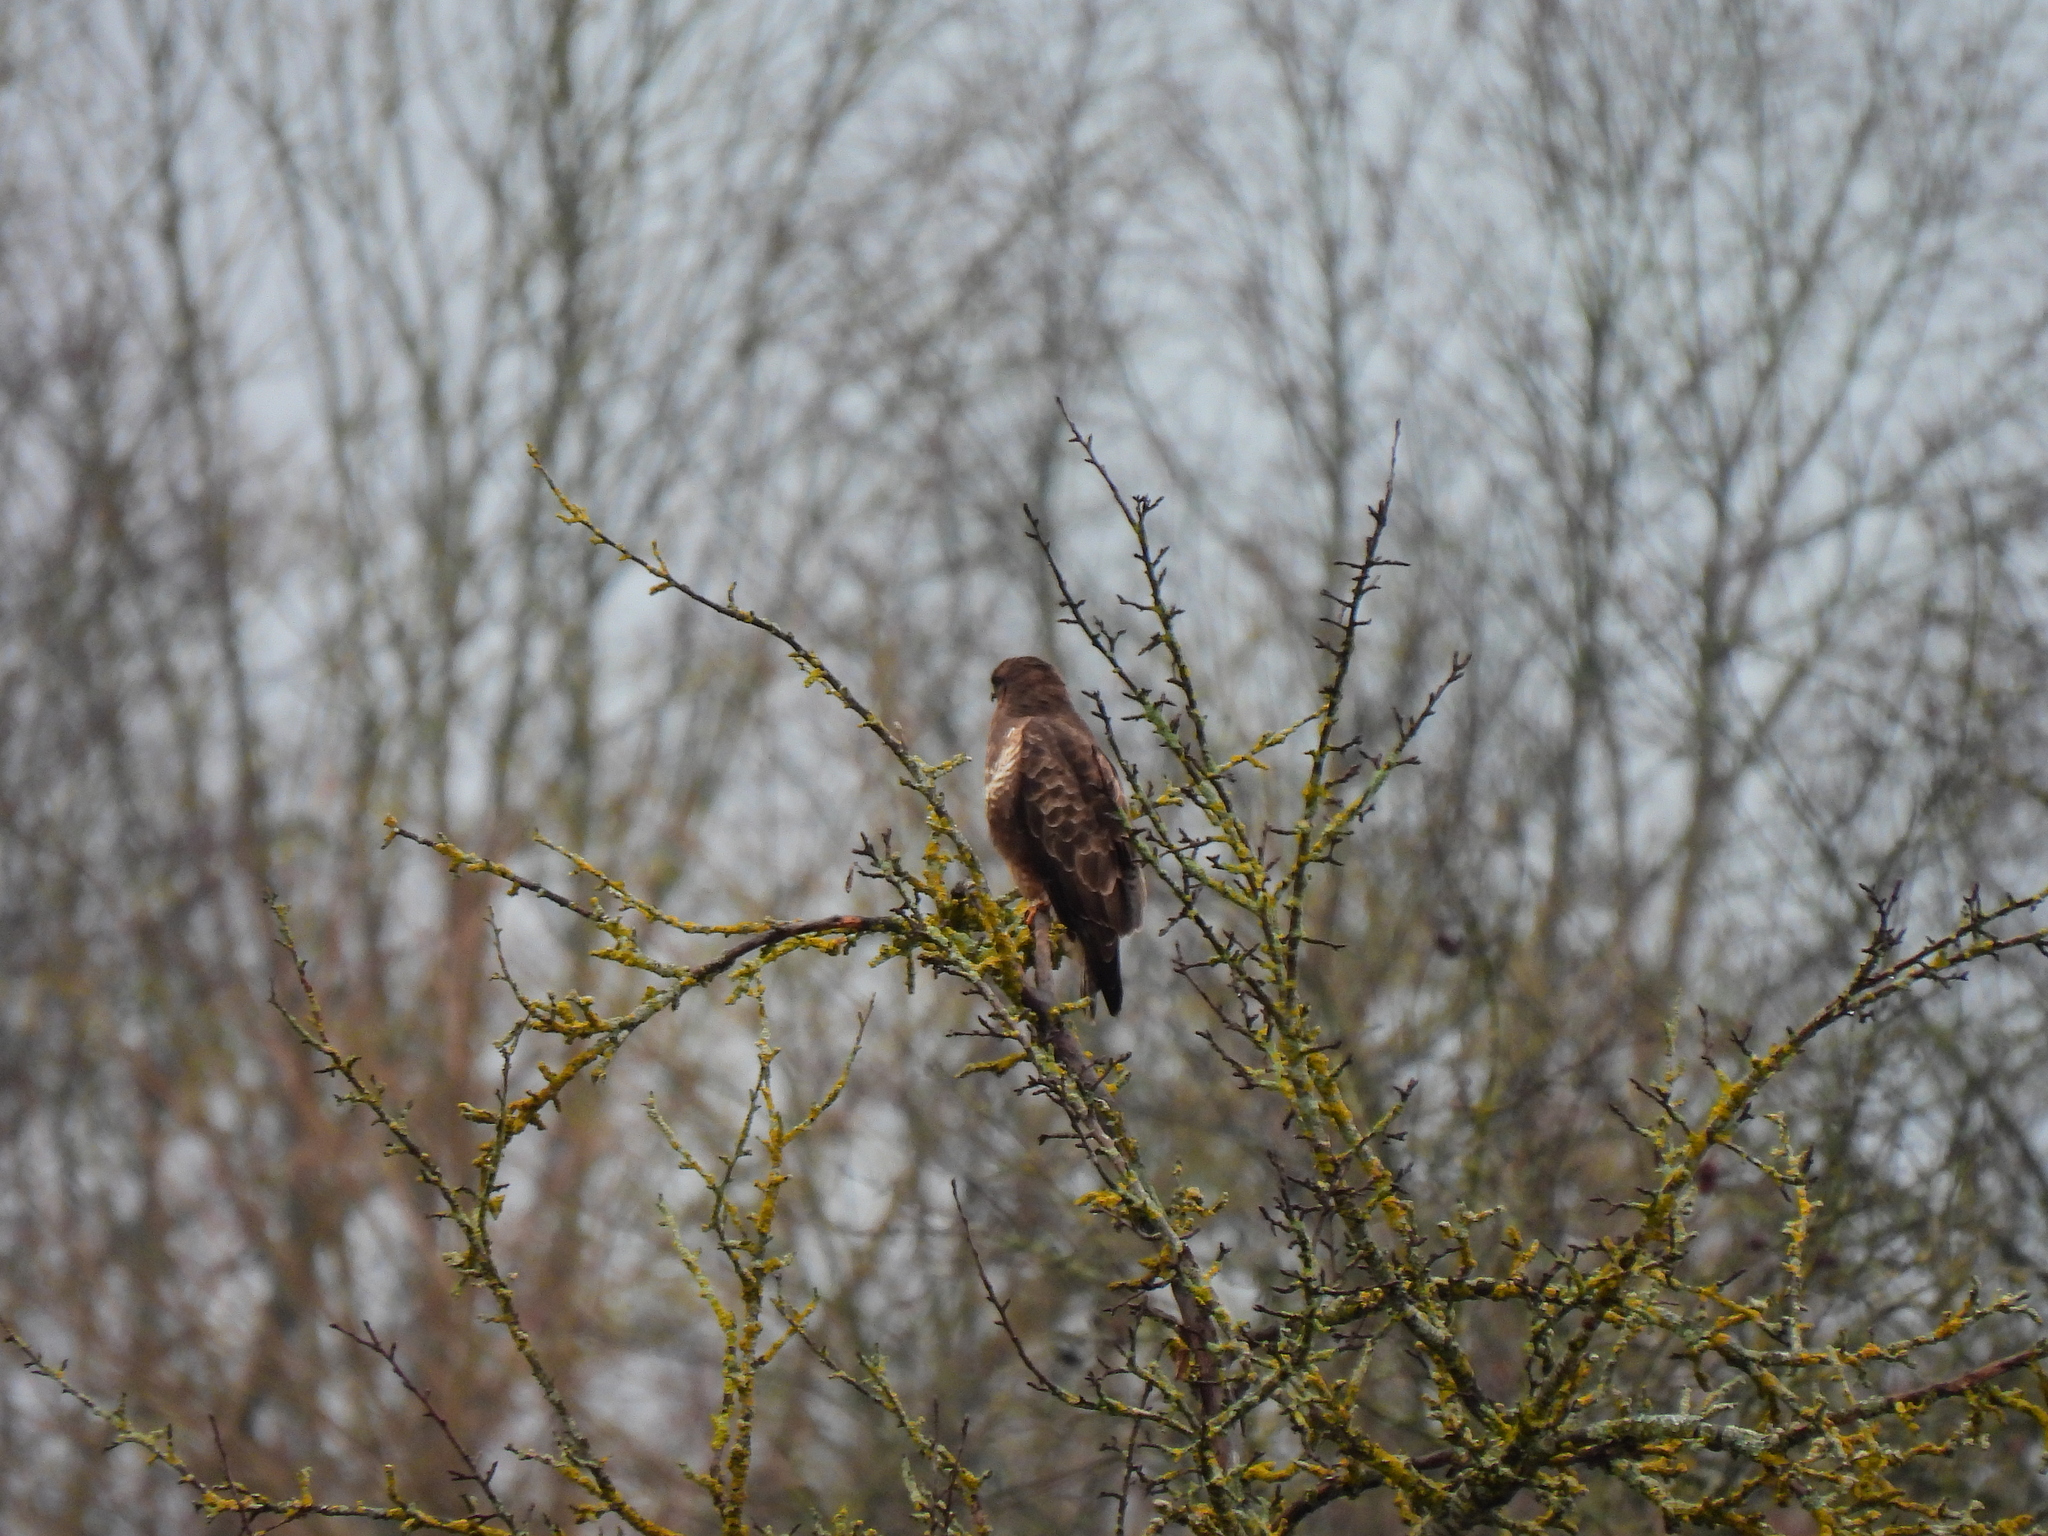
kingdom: Animalia
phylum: Chordata
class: Aves
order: Accipitriformes
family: Accipitridae
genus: Buteo
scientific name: Buteo buteo
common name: Common buzzard
